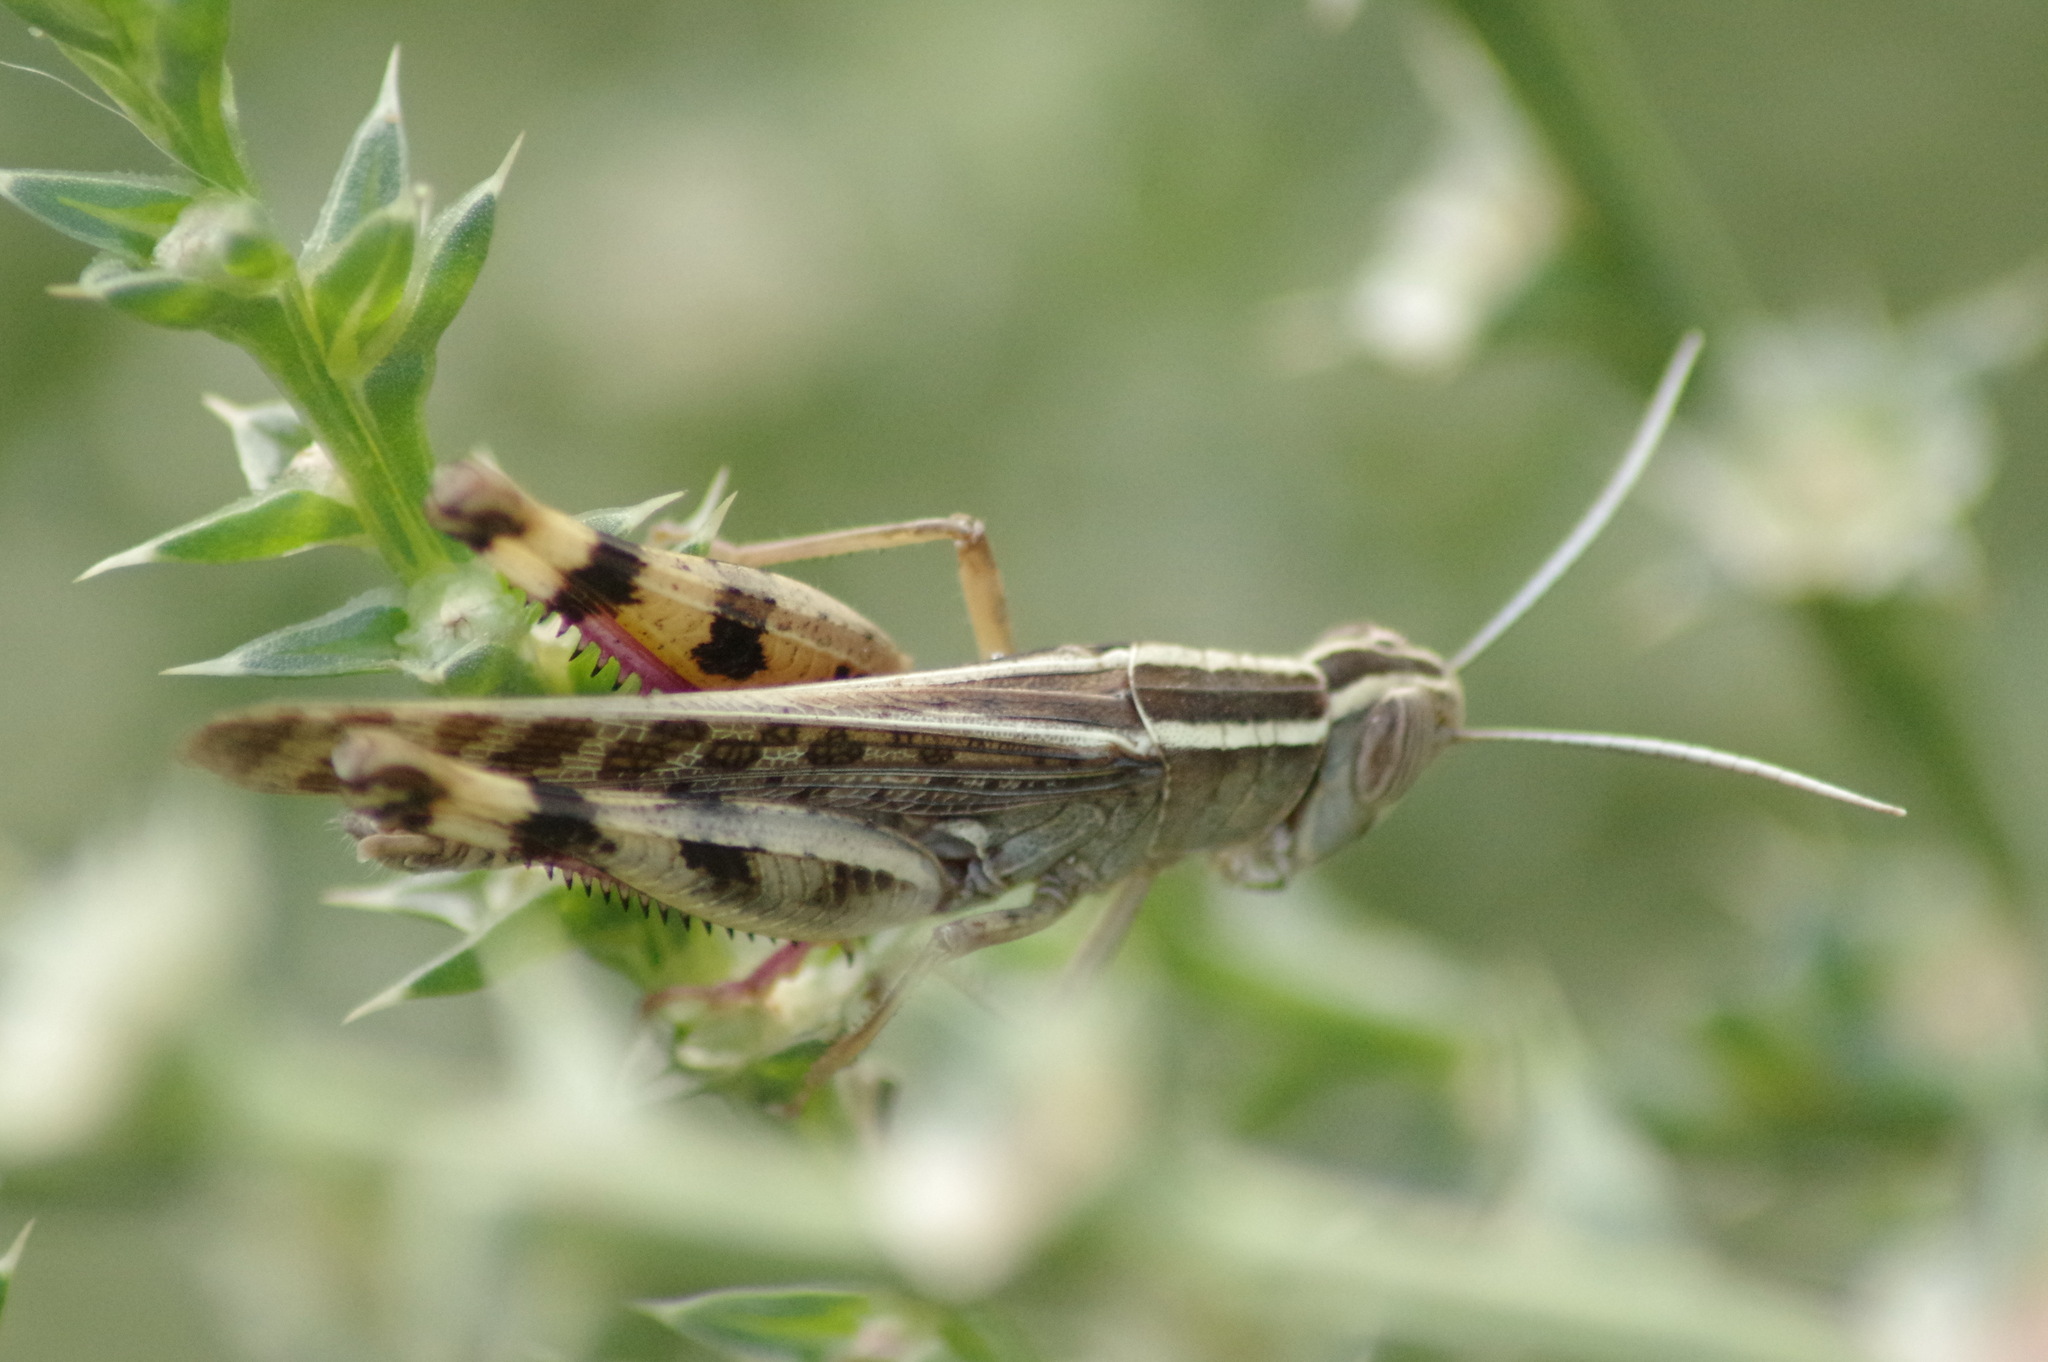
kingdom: Animalia
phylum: Arthropoda
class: Insecta
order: Orthoptera
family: Acrididae
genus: Heteracris
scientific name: Heteracris littoralis
